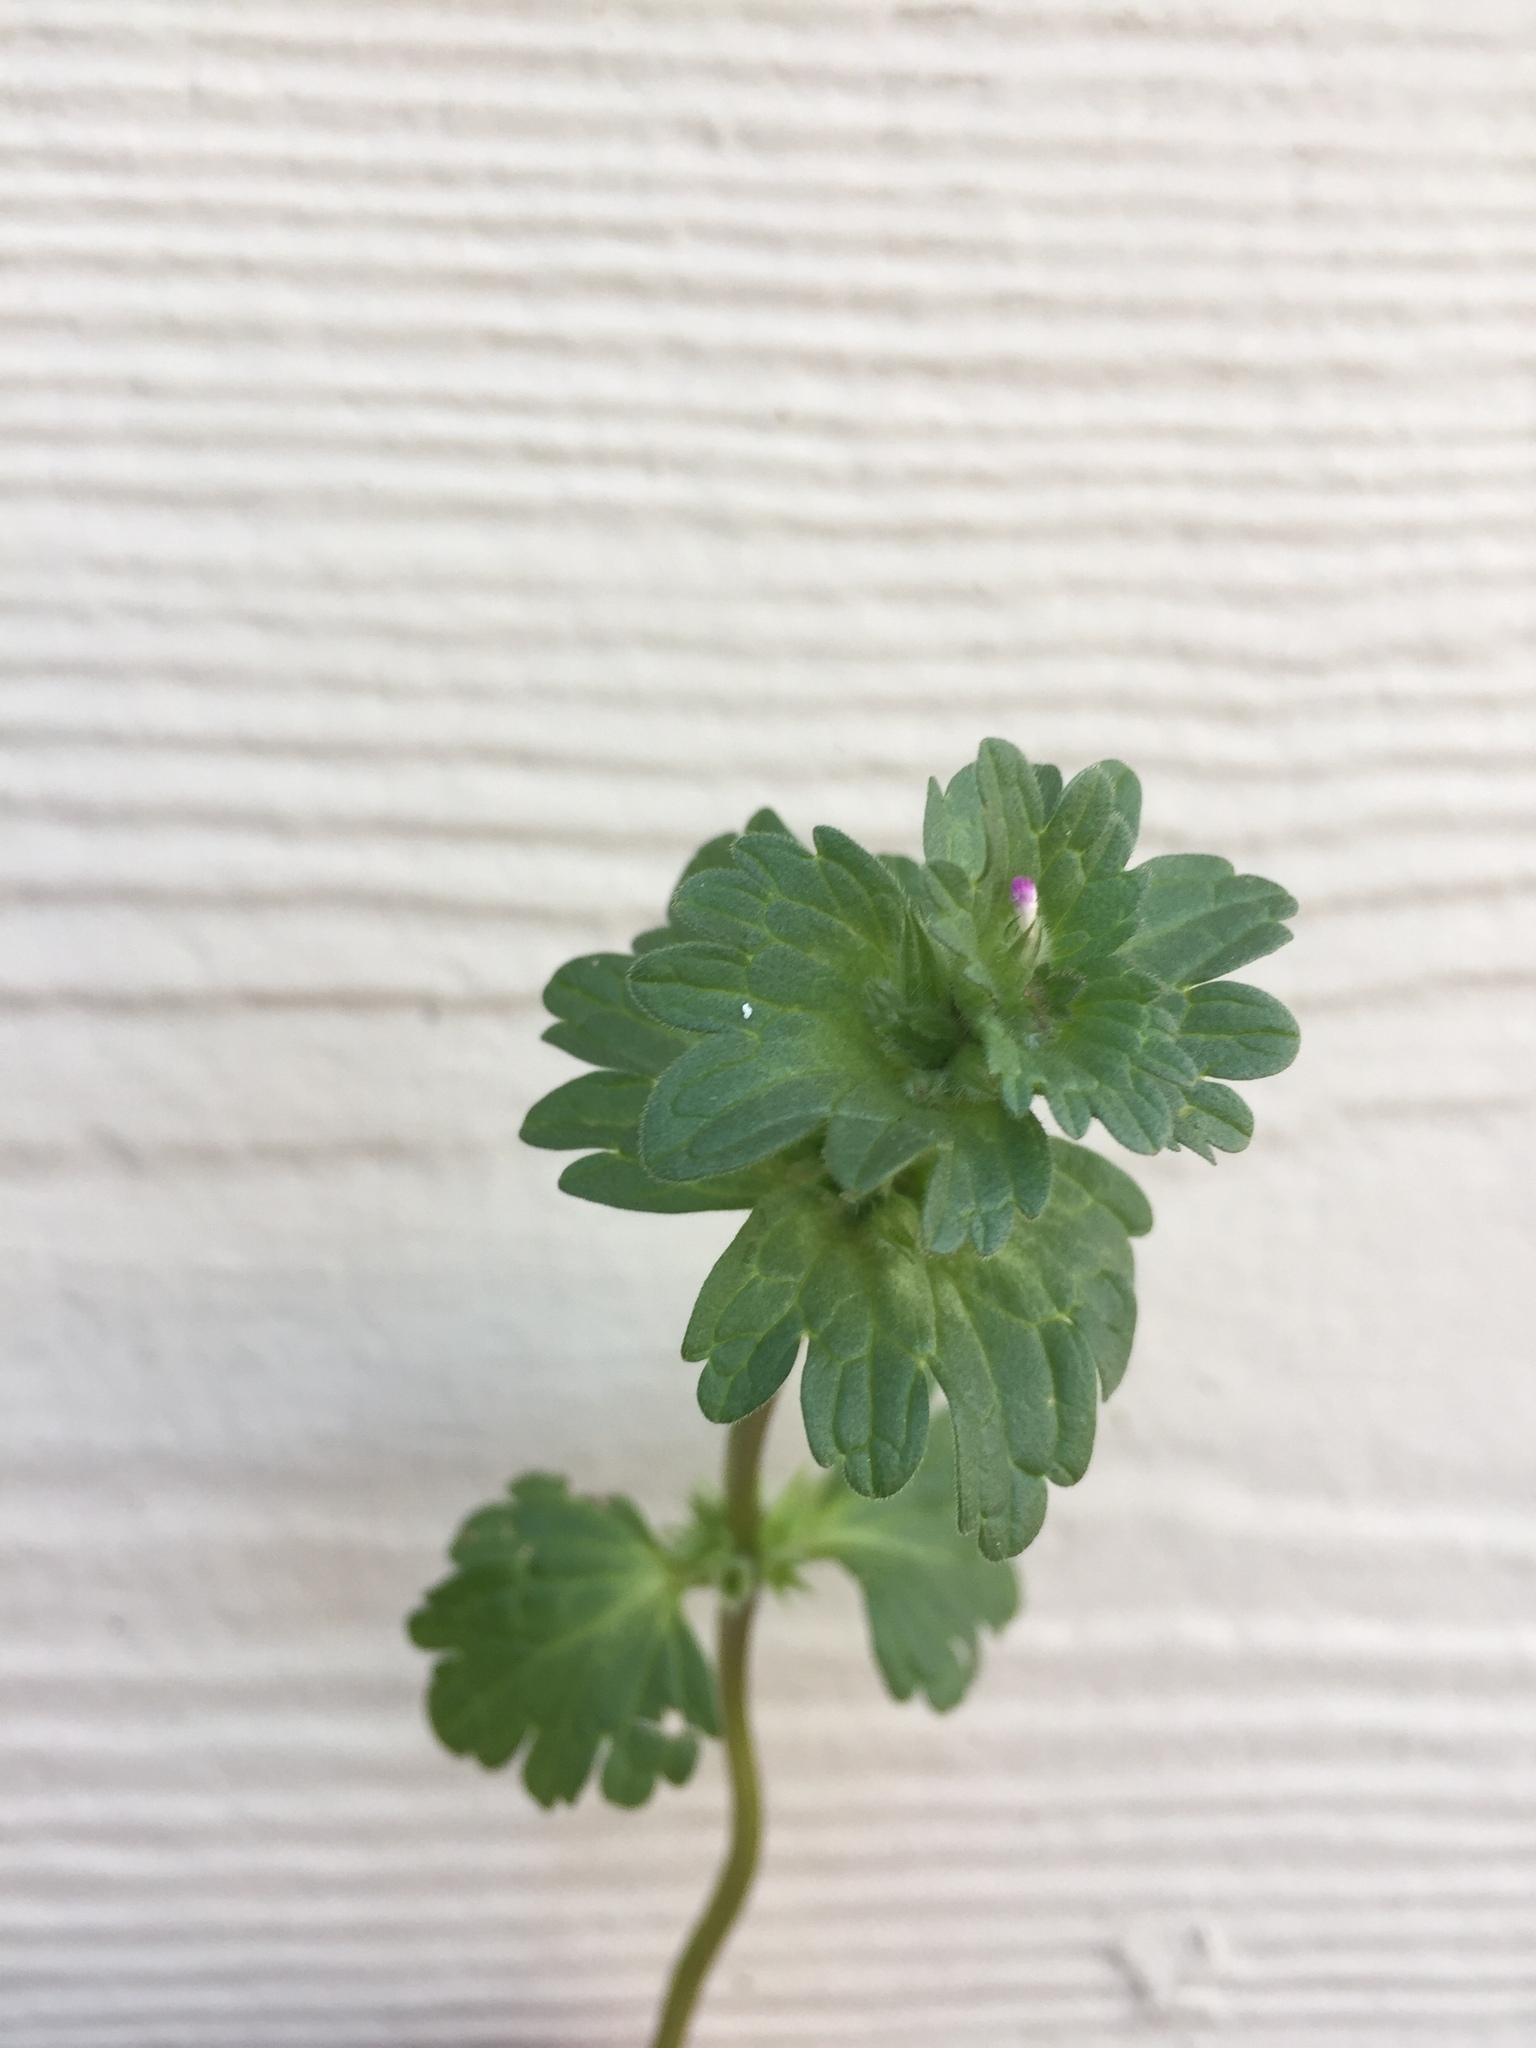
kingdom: Plantae
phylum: Tracheophyta
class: Magnoliopsida
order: Lamiales
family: Lamiaceae
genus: Lamium
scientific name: Lamium amplexicaule
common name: Henbit dead-nettle
